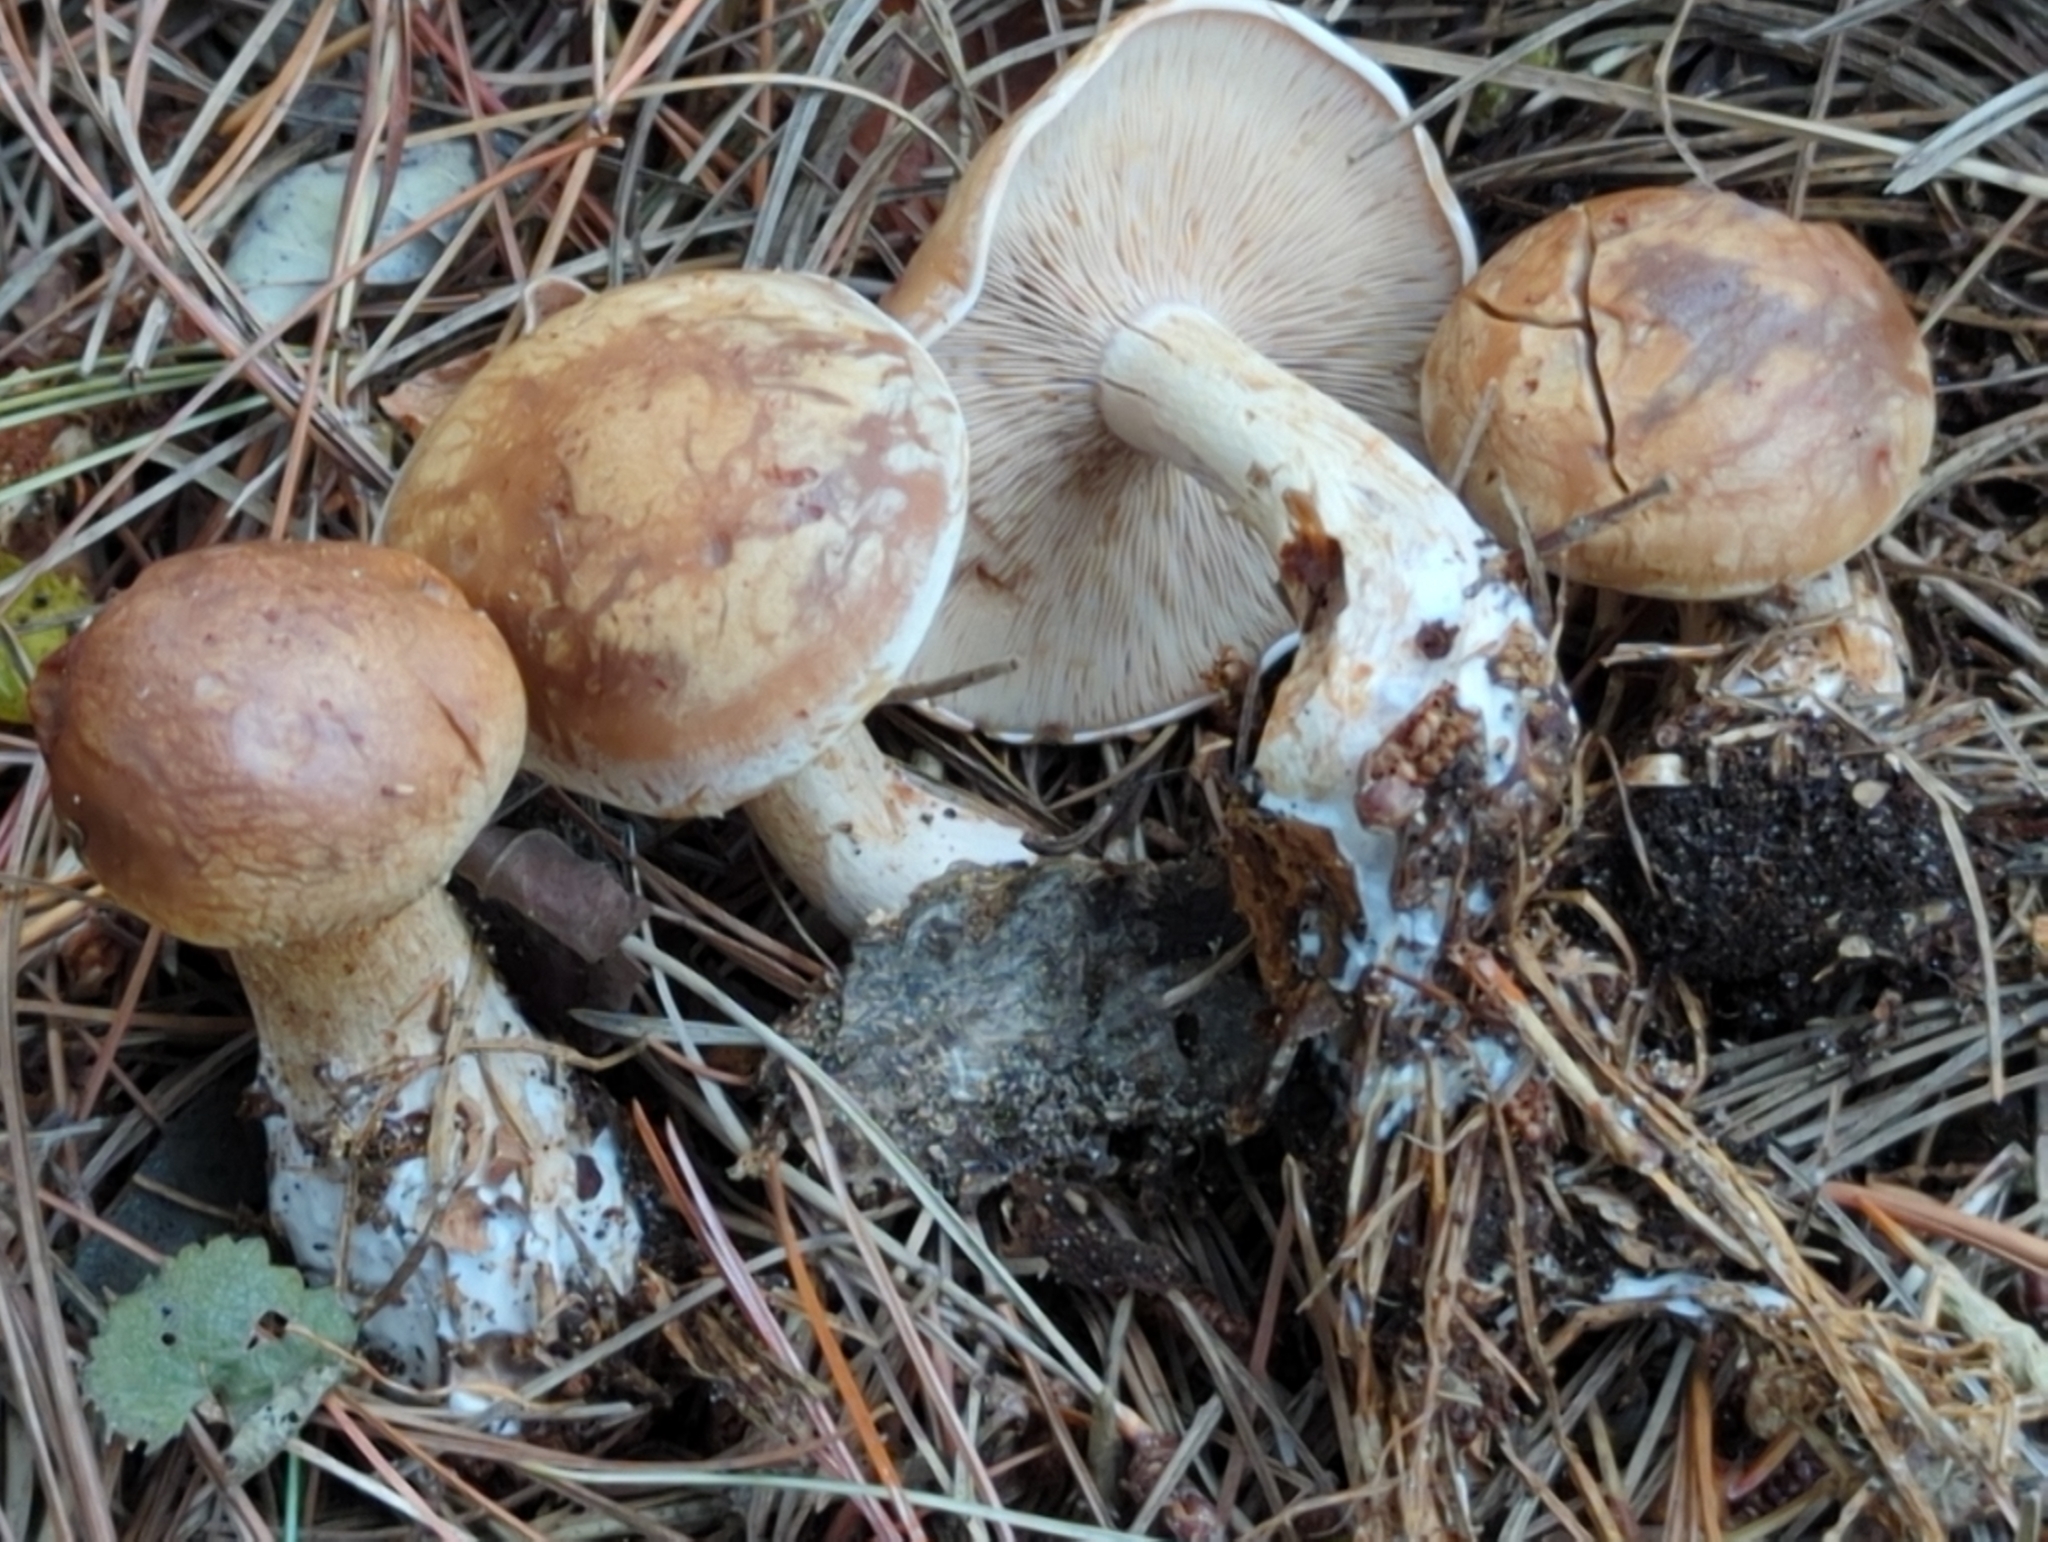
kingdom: Fungi
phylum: Basidiomycota
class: Agaricomycetes
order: Agaricales
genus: Hertzogia
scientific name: Hertzogia martiorum
